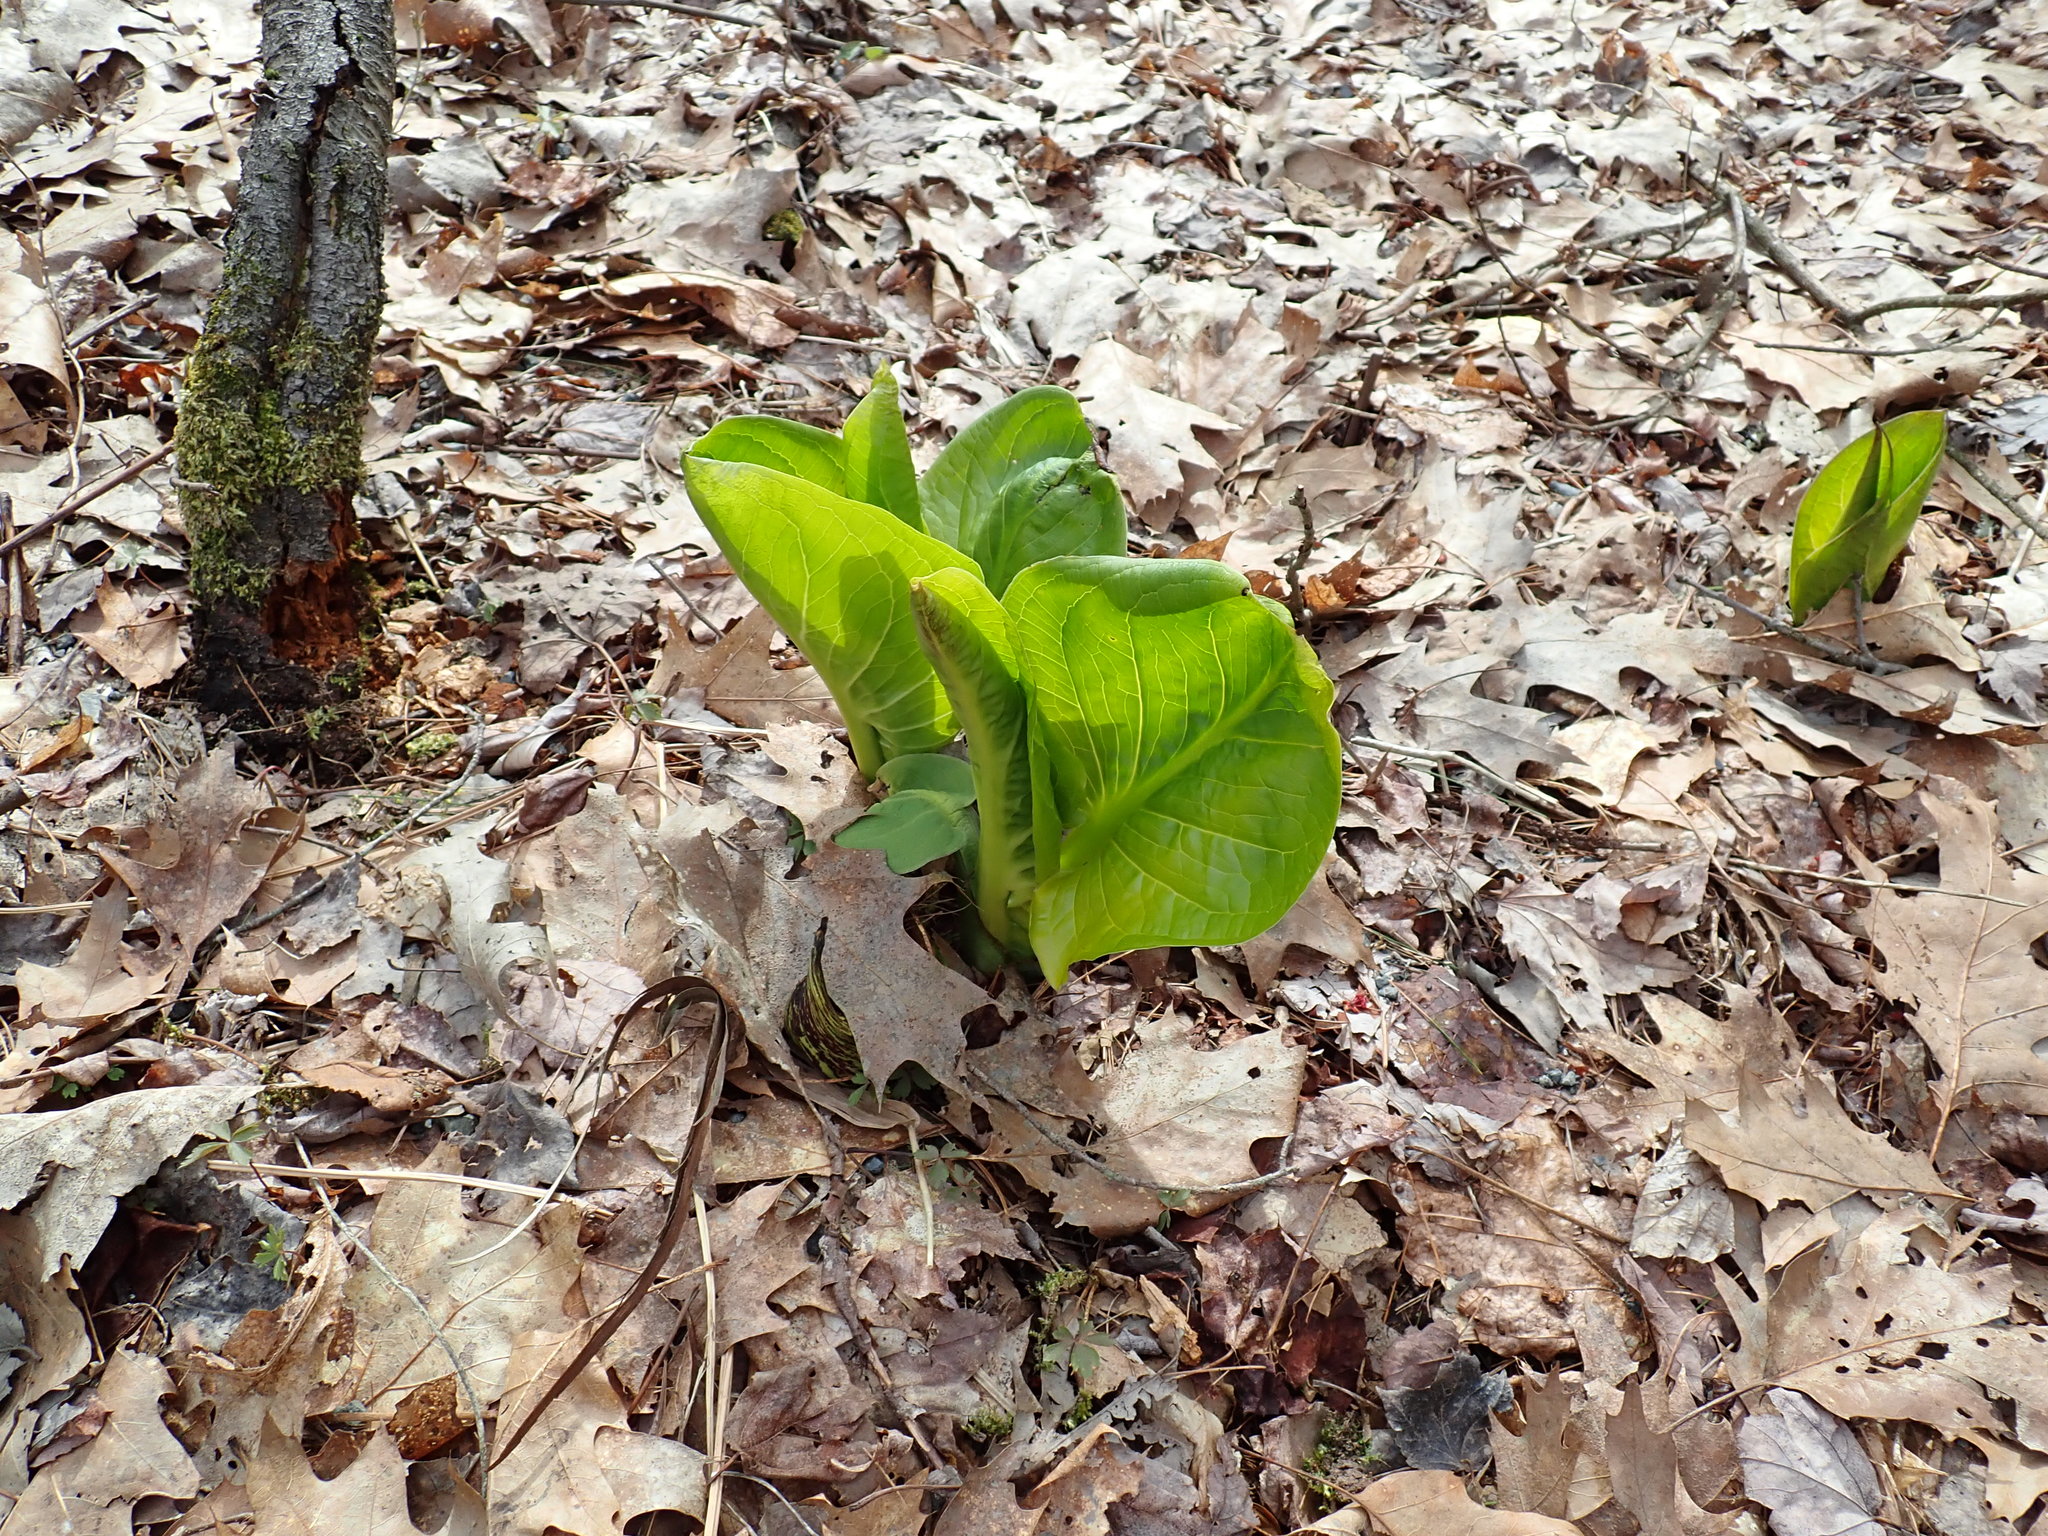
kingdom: Plantae
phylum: Tracheophyta
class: Liliopsida
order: Alismatales
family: Araceae
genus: Symplocarpus
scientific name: Symplocarpus foetidus
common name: Eastern skunk cabbage
